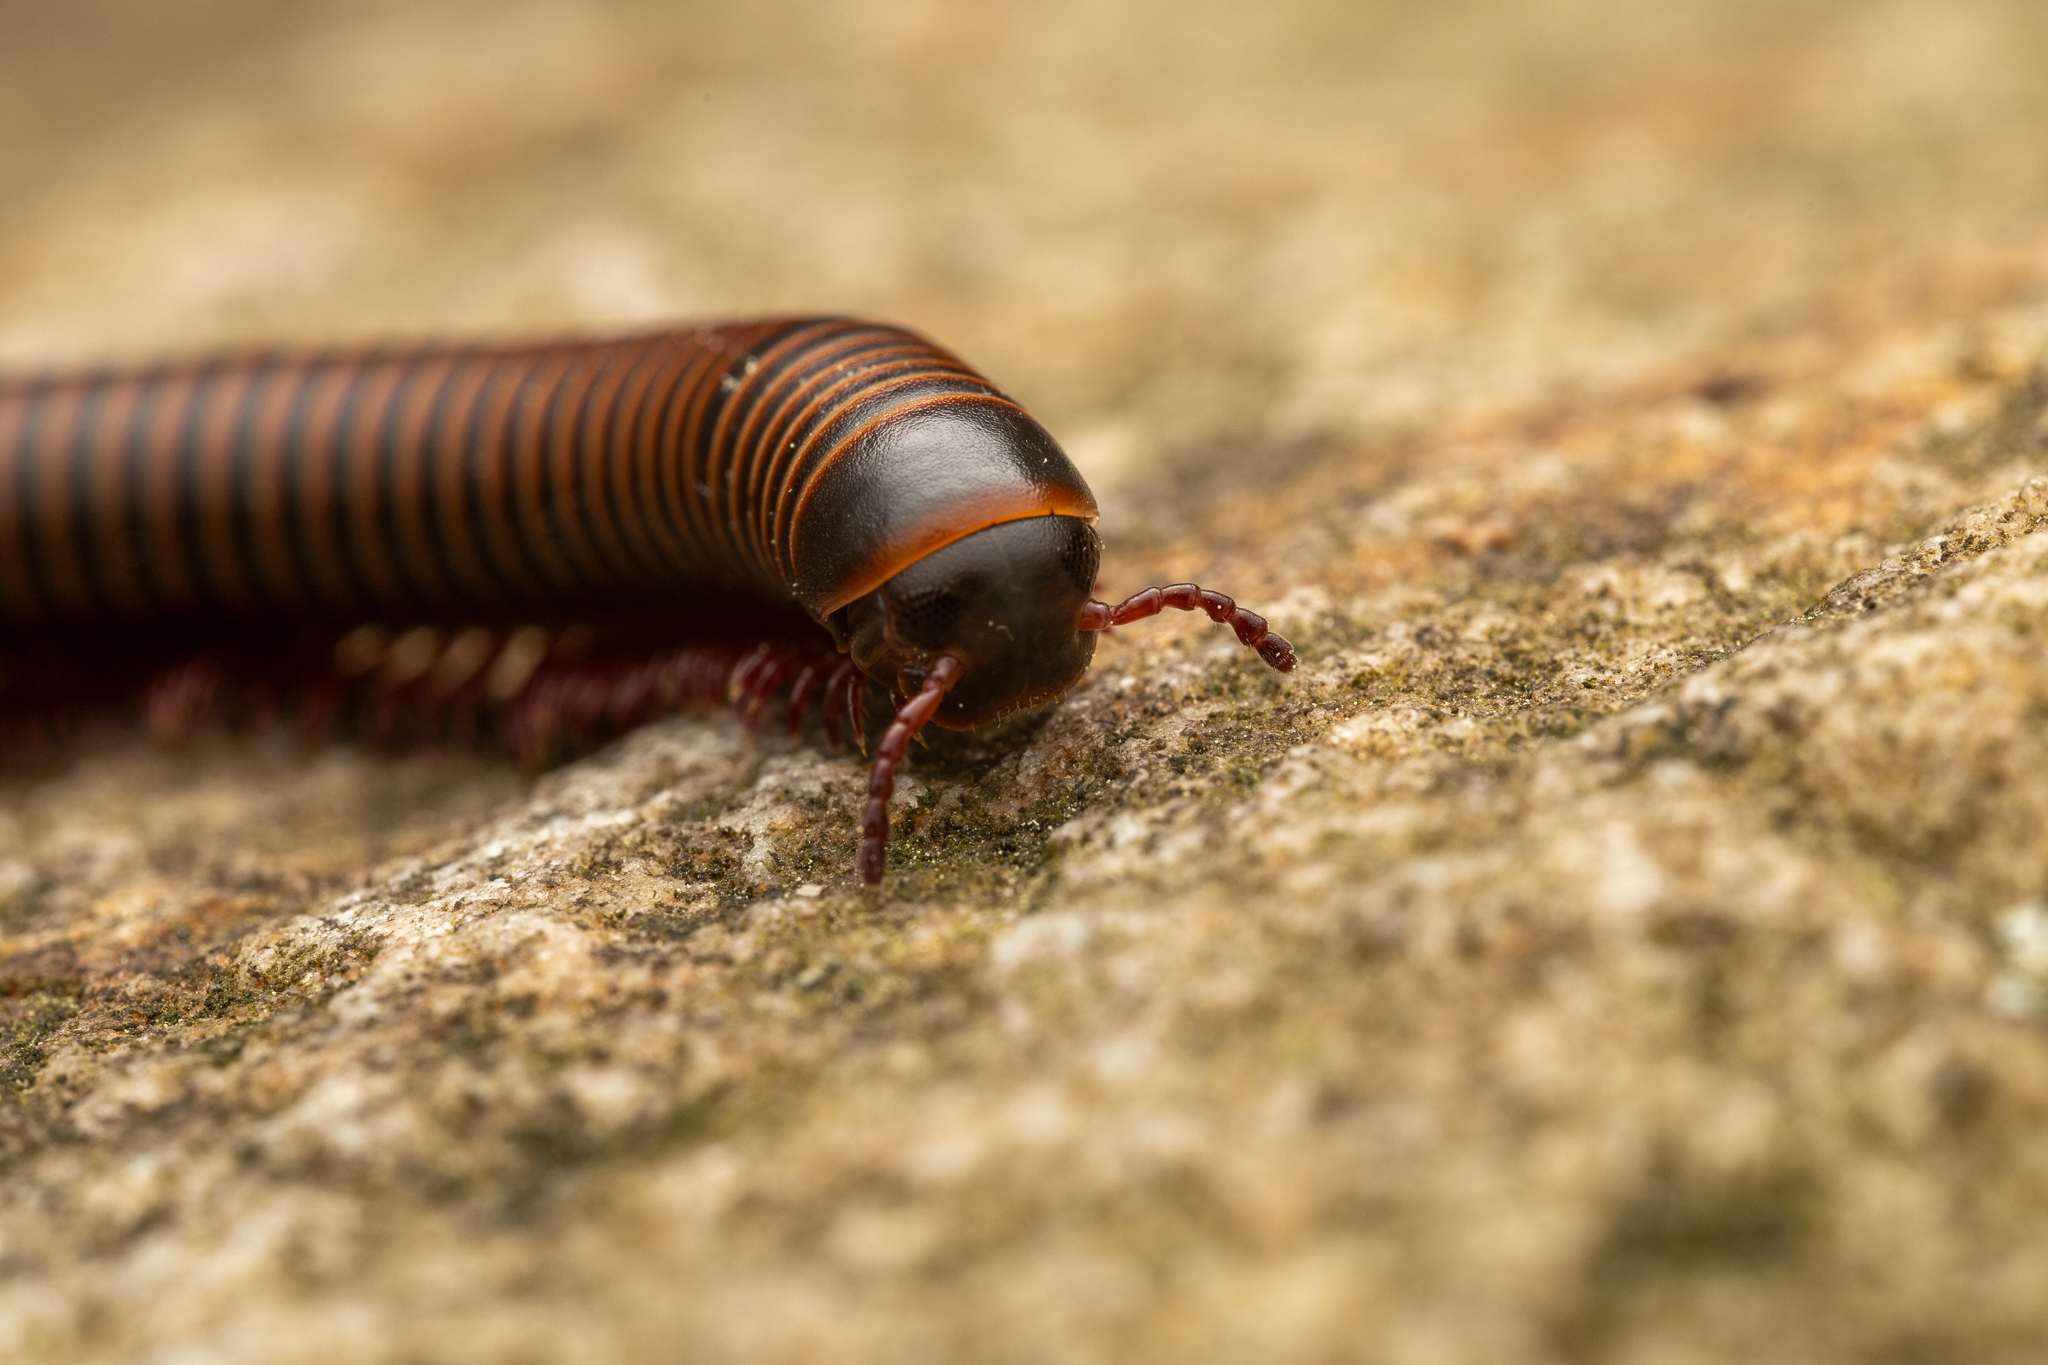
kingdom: Animalia
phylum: Arthropoda
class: Diplopoda
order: Spirobolida
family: Spirobolidae
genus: Narceus
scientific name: Narceus americanus
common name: American giant millipede
